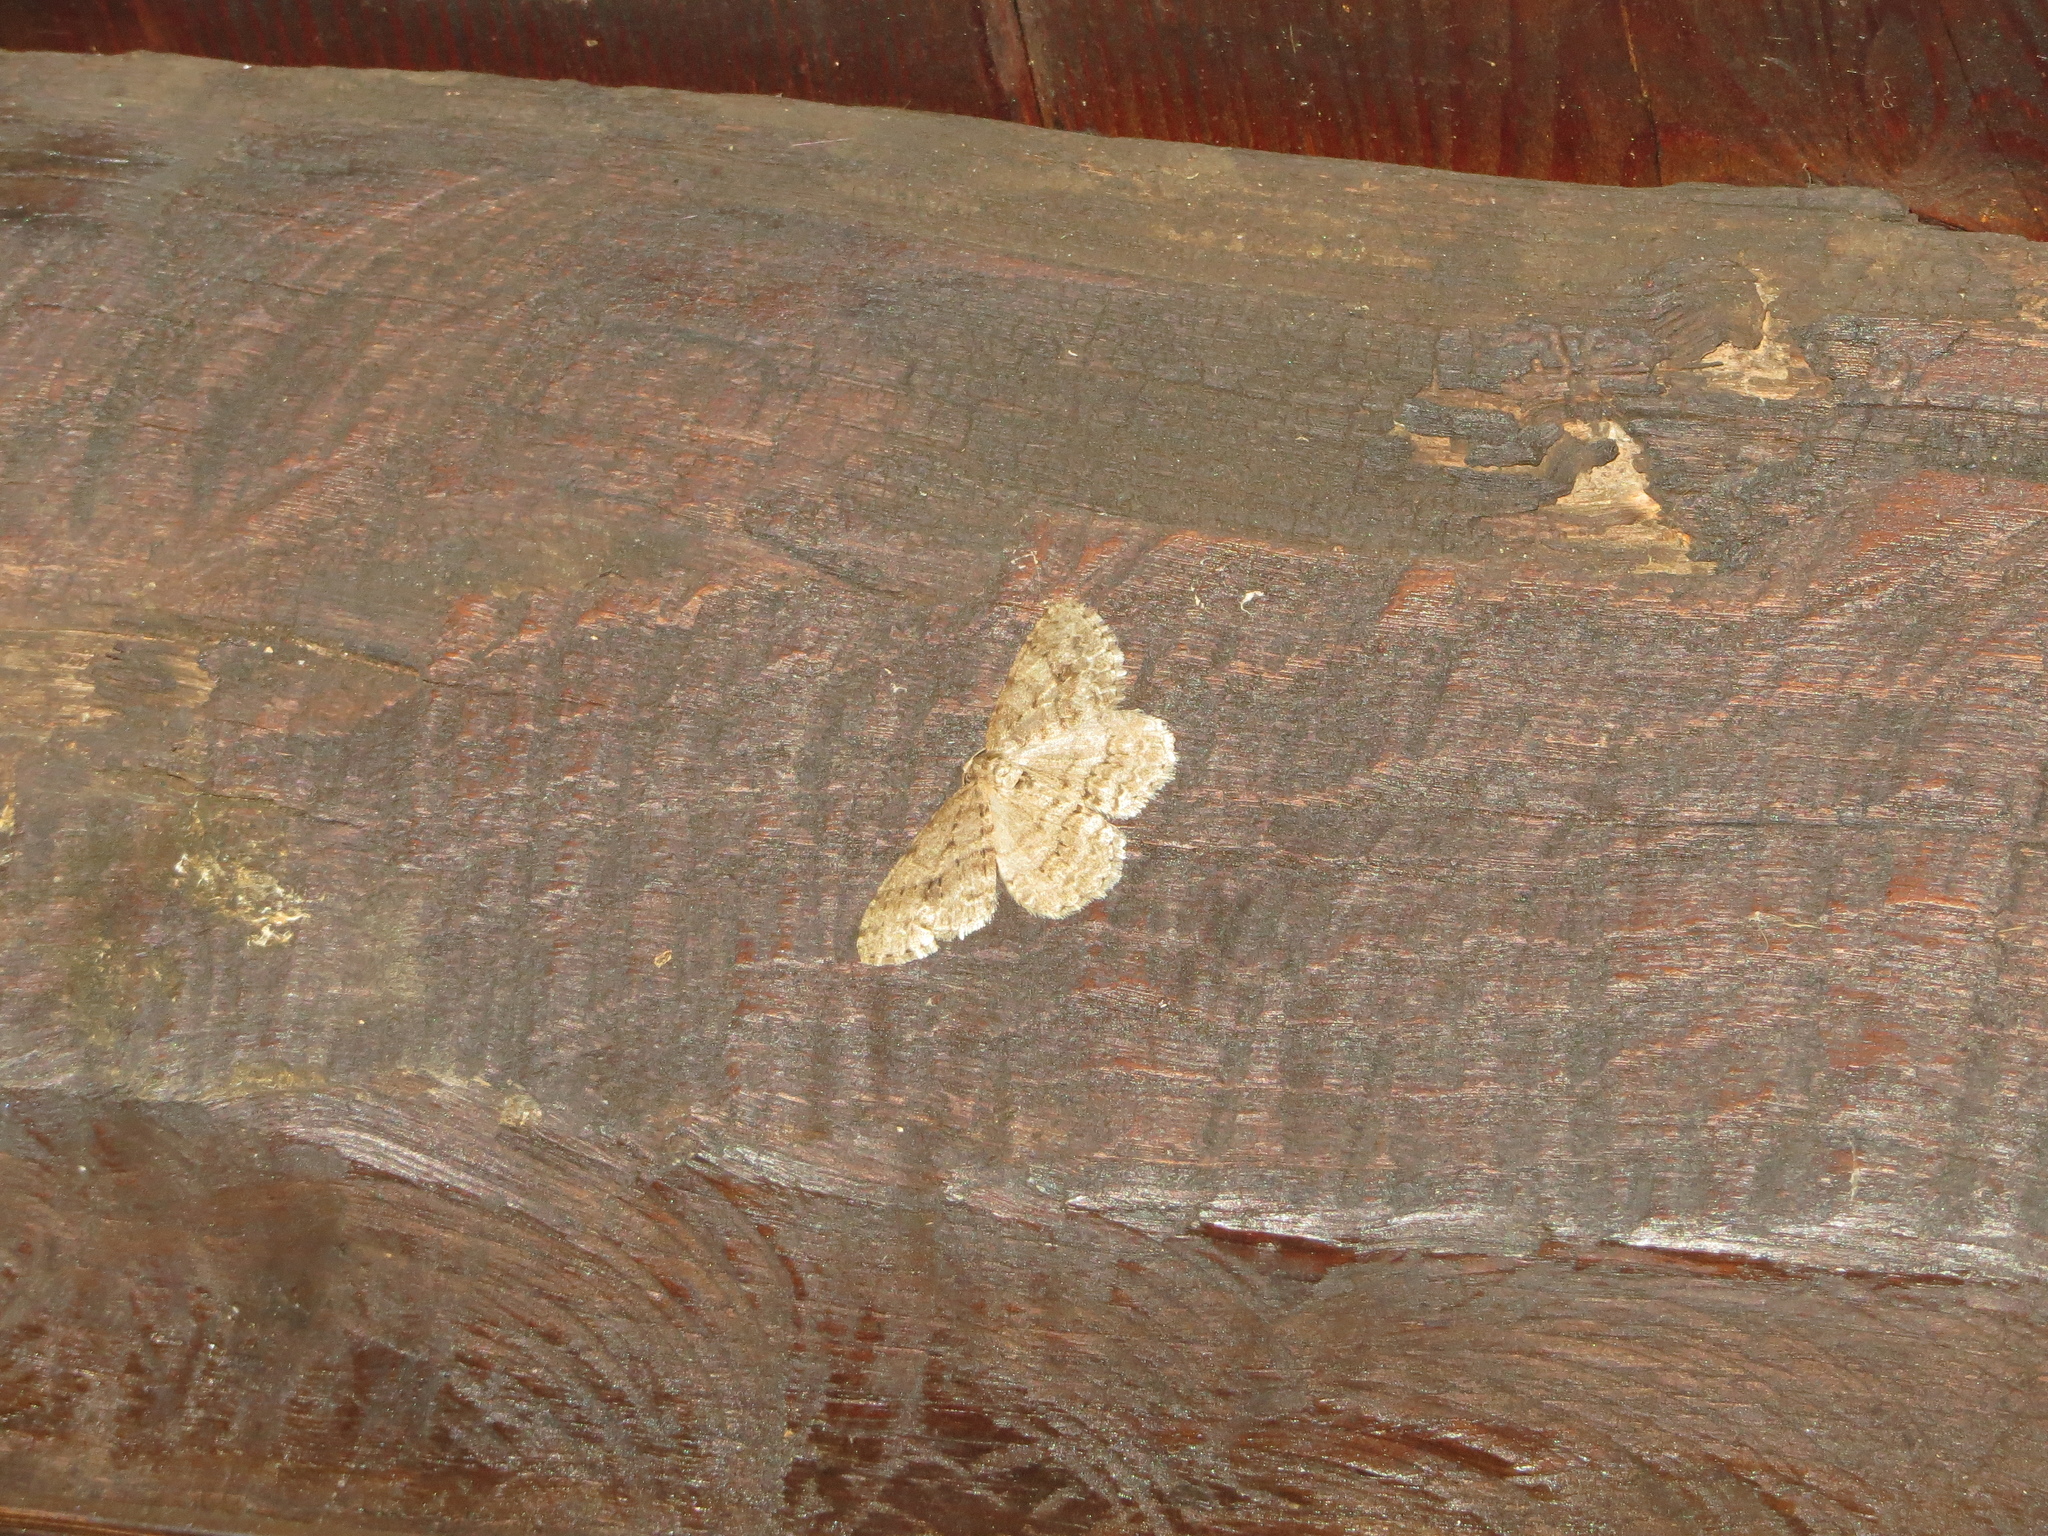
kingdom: Animalia
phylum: Arthropoda
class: Insecta
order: Lepidoptera
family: Geometridae
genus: Ectropis
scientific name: Ectropis crepuscularia
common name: Engrailed
